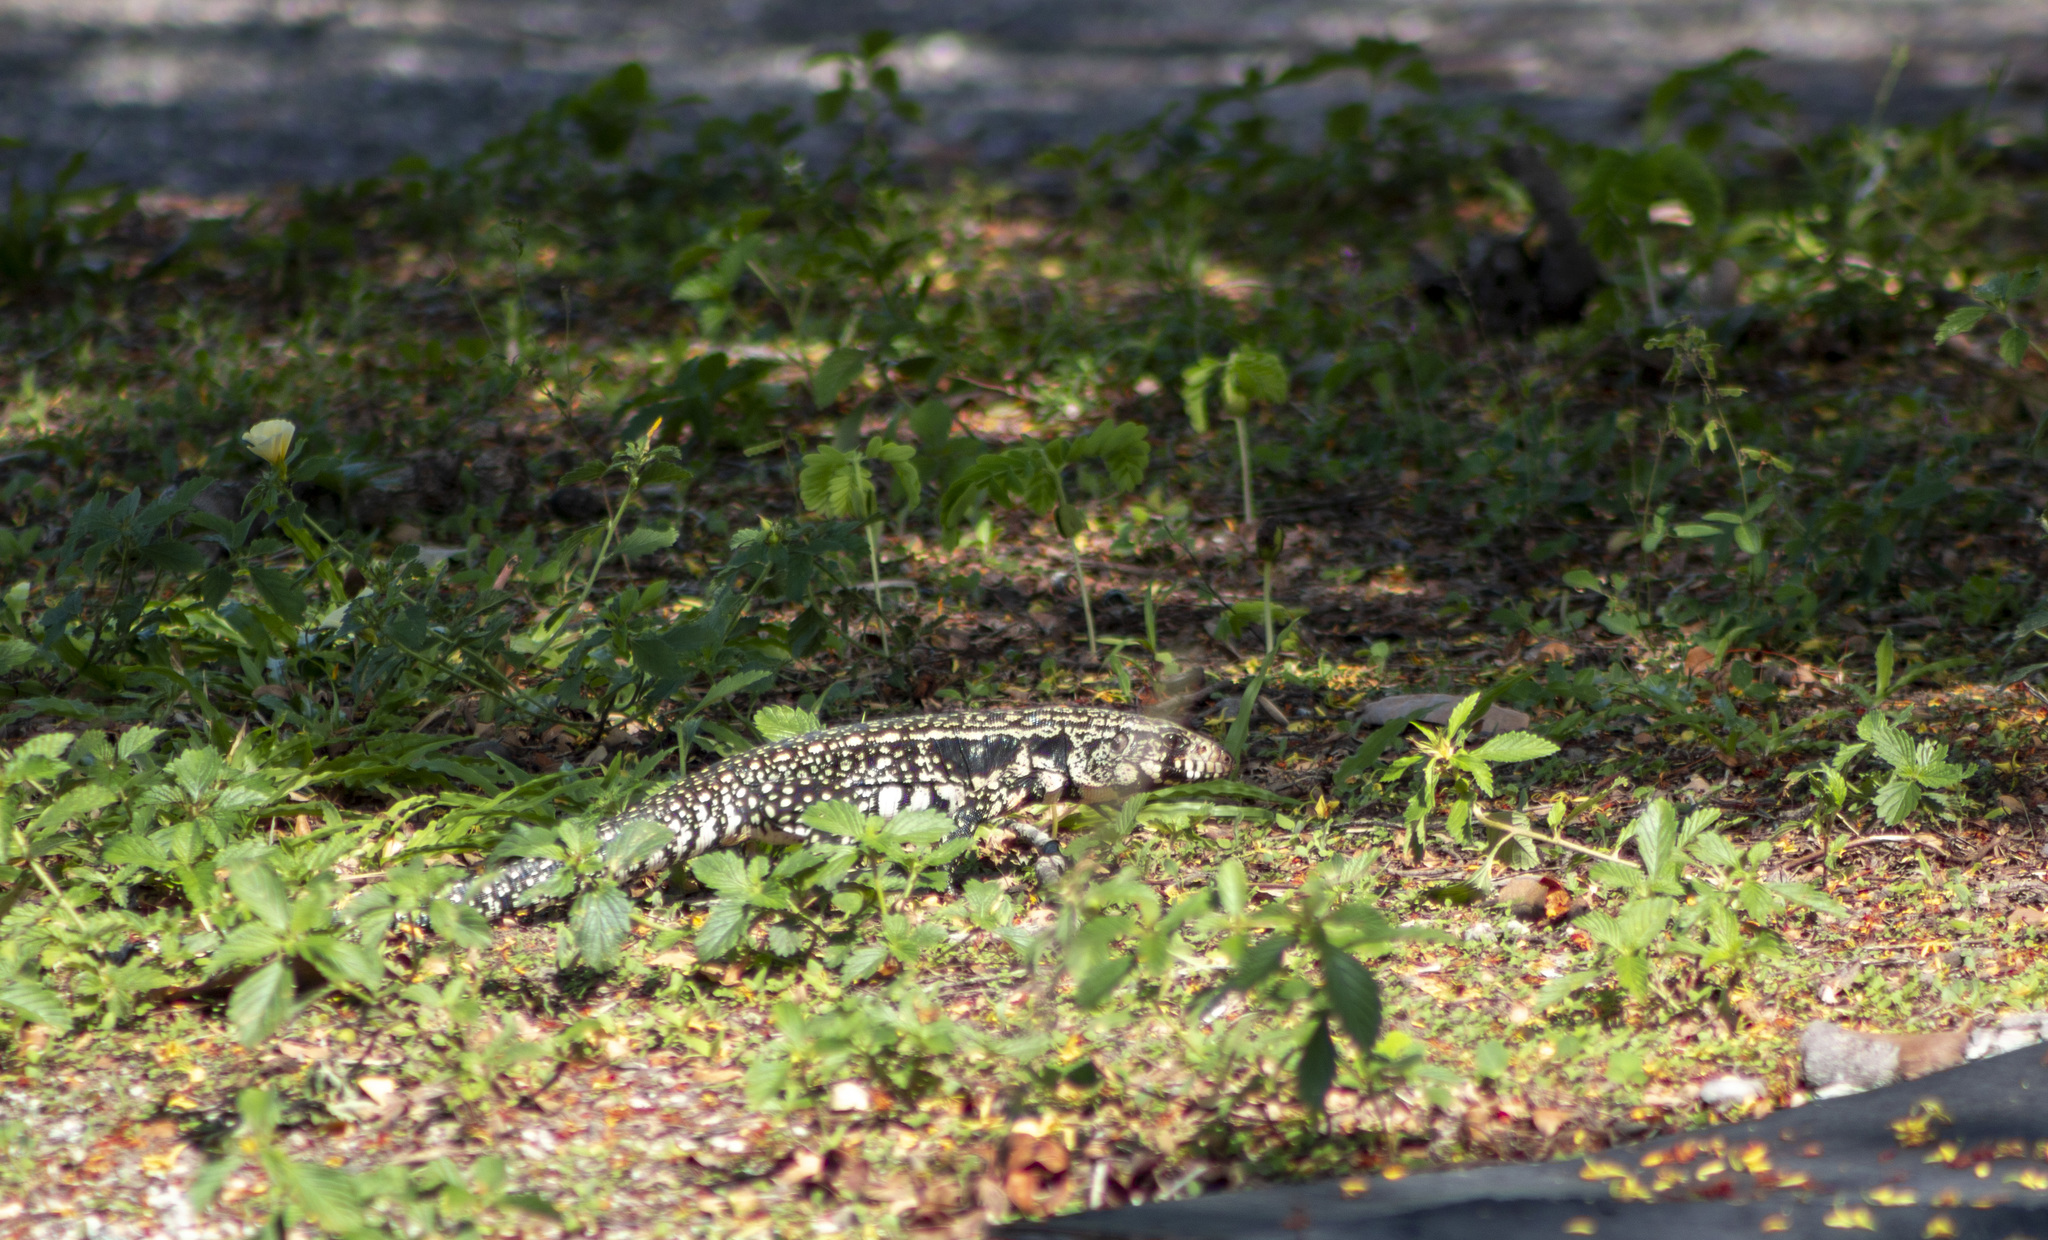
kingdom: Animalia
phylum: Chordata
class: Squamata
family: Teiidae
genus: Salvator
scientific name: Salvator merianae
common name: Argentine black and white tegu
